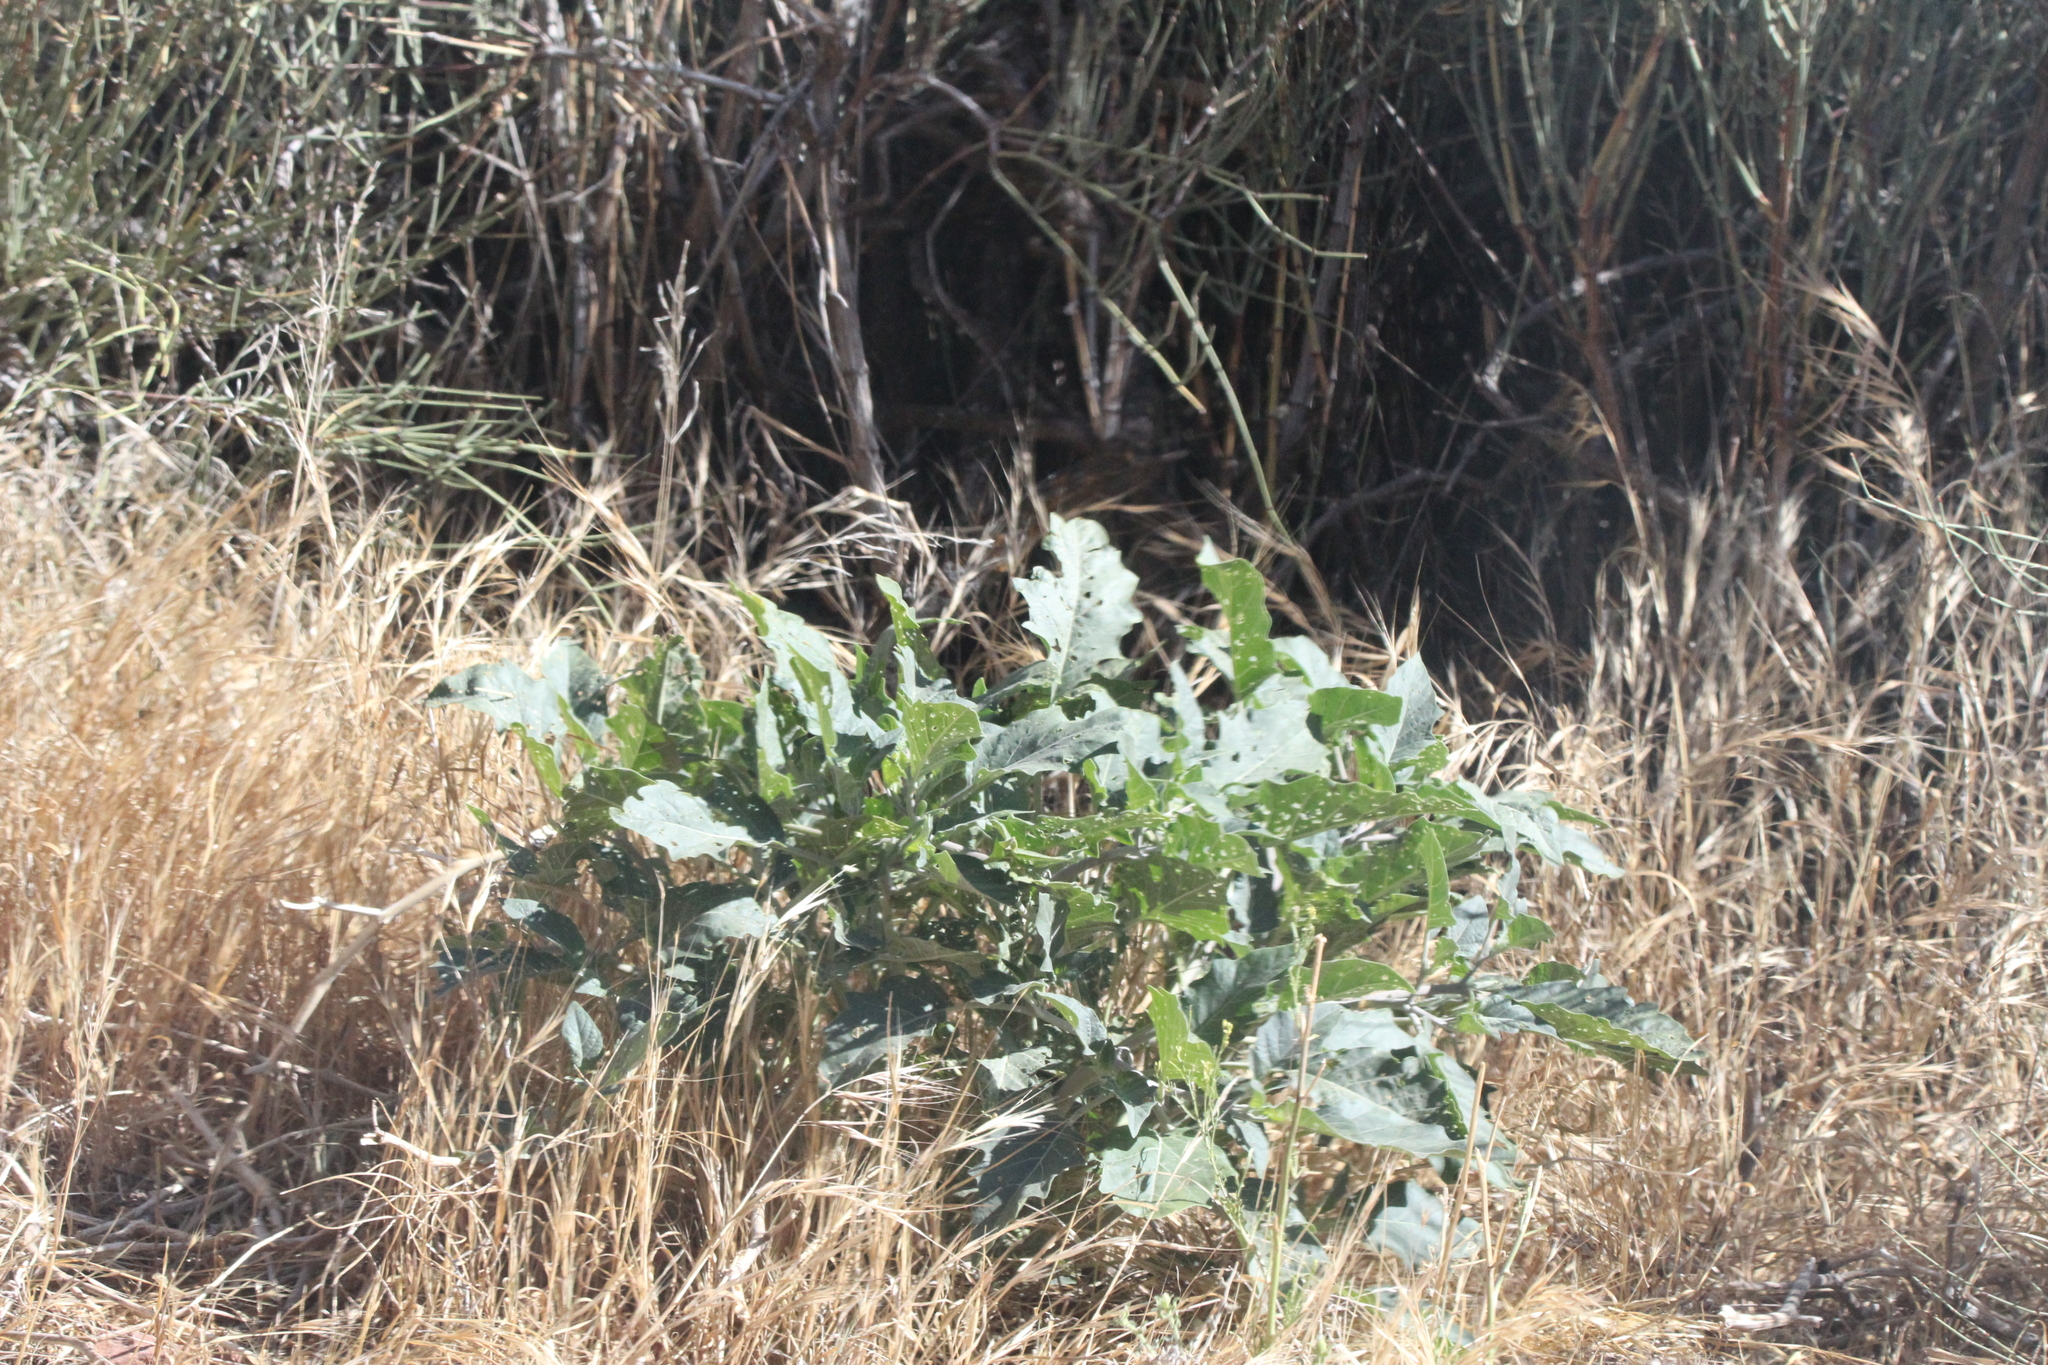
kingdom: Plantae
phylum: Tracheophyta
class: Magnoliopsida
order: Solanales
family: Solanaceae
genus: Datura
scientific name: Datura wrightii
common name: Sacred thorn-apple
